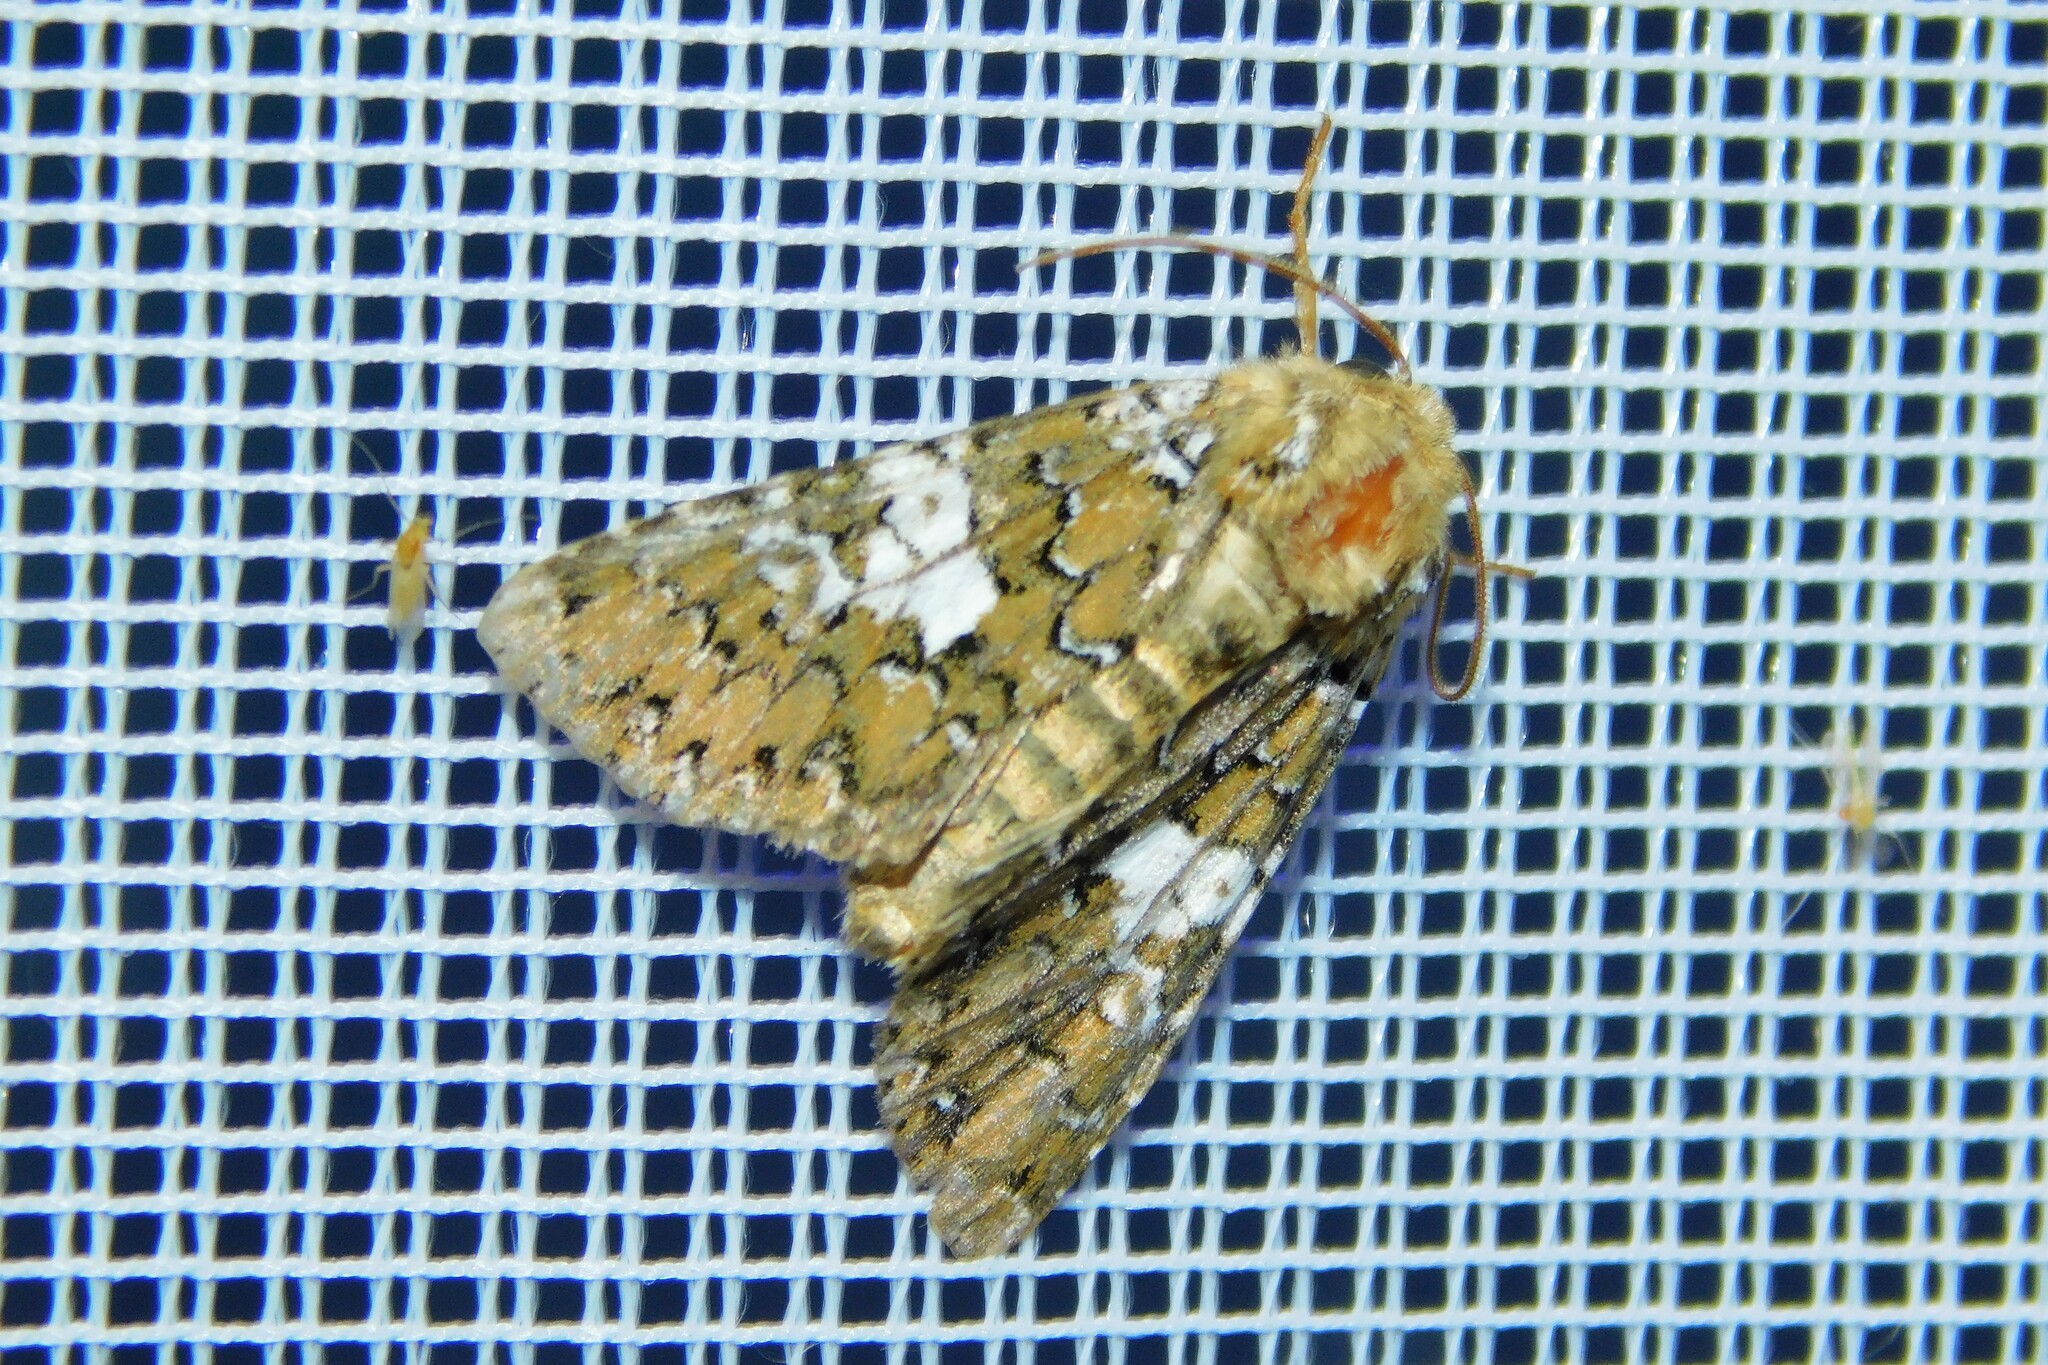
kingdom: Animalia
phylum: Arthropoda
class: Insecta
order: Lepidoptera
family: Noctuidae
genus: Hadena
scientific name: Hadena albimacula
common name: White spot
